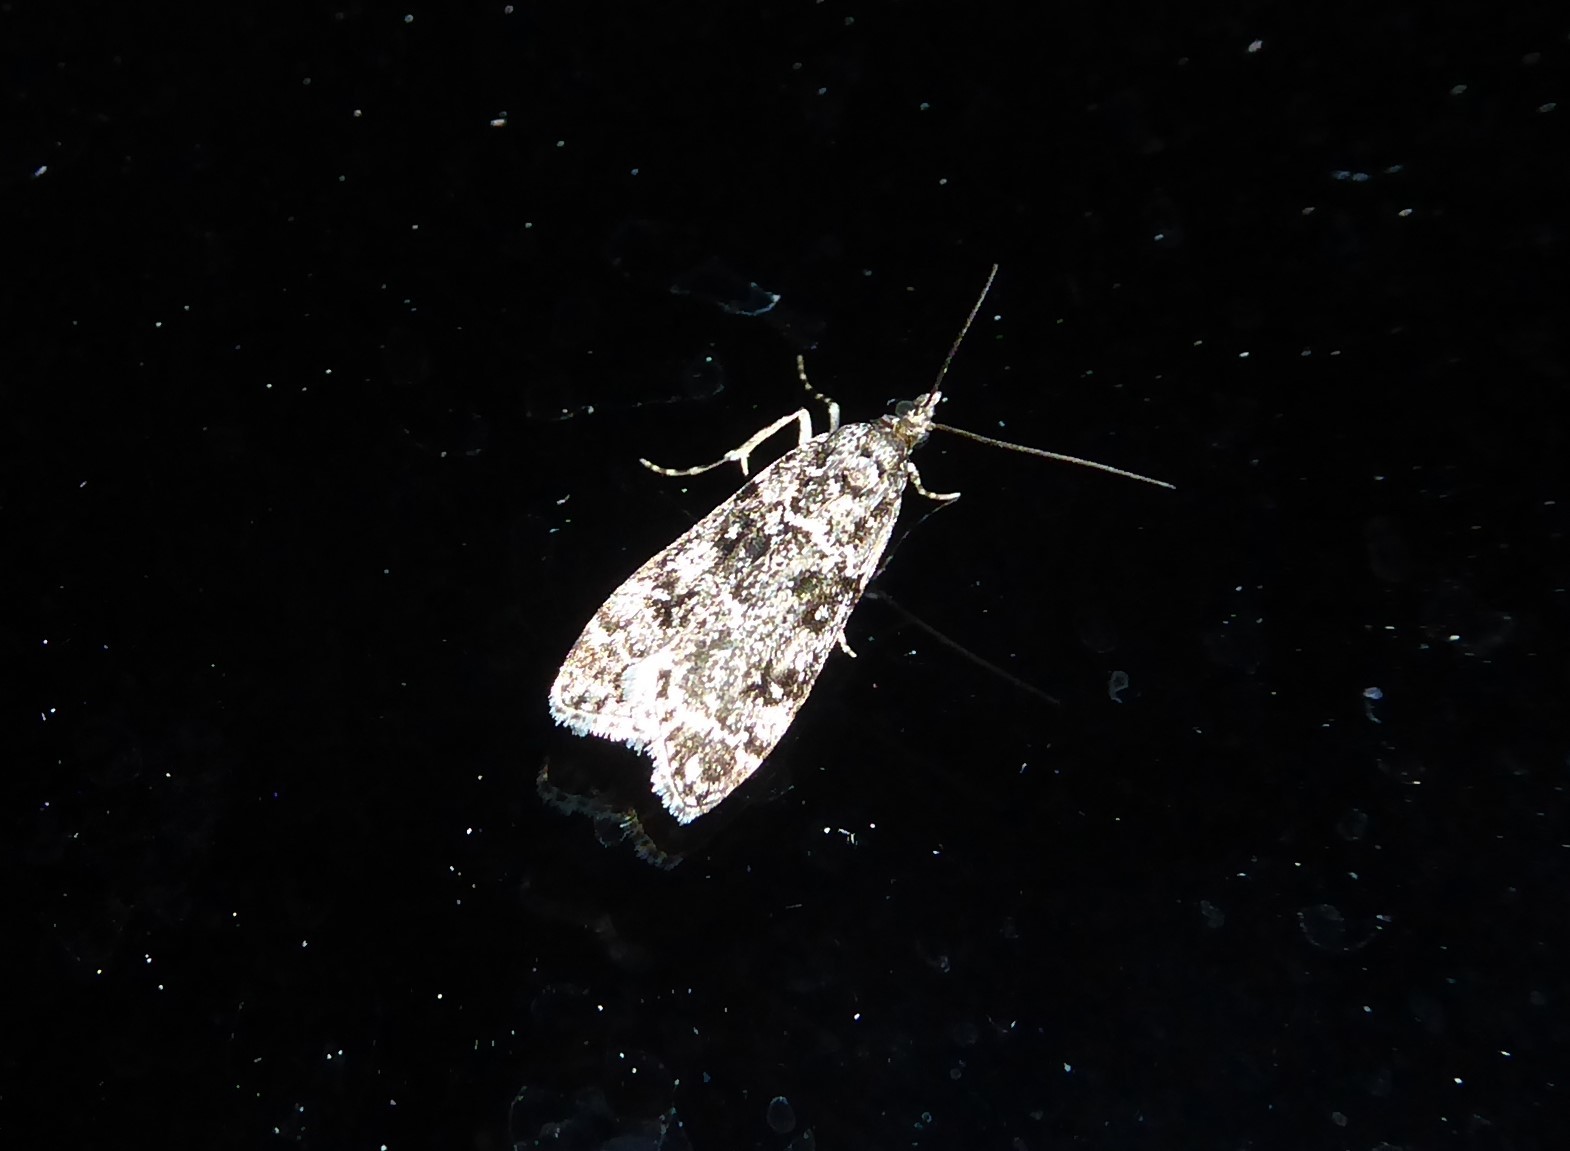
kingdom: Animalia
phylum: Arthropoda
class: Insecta
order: Lepidoptera
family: Crambidae
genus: Eudonia
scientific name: Eudonia philerga
